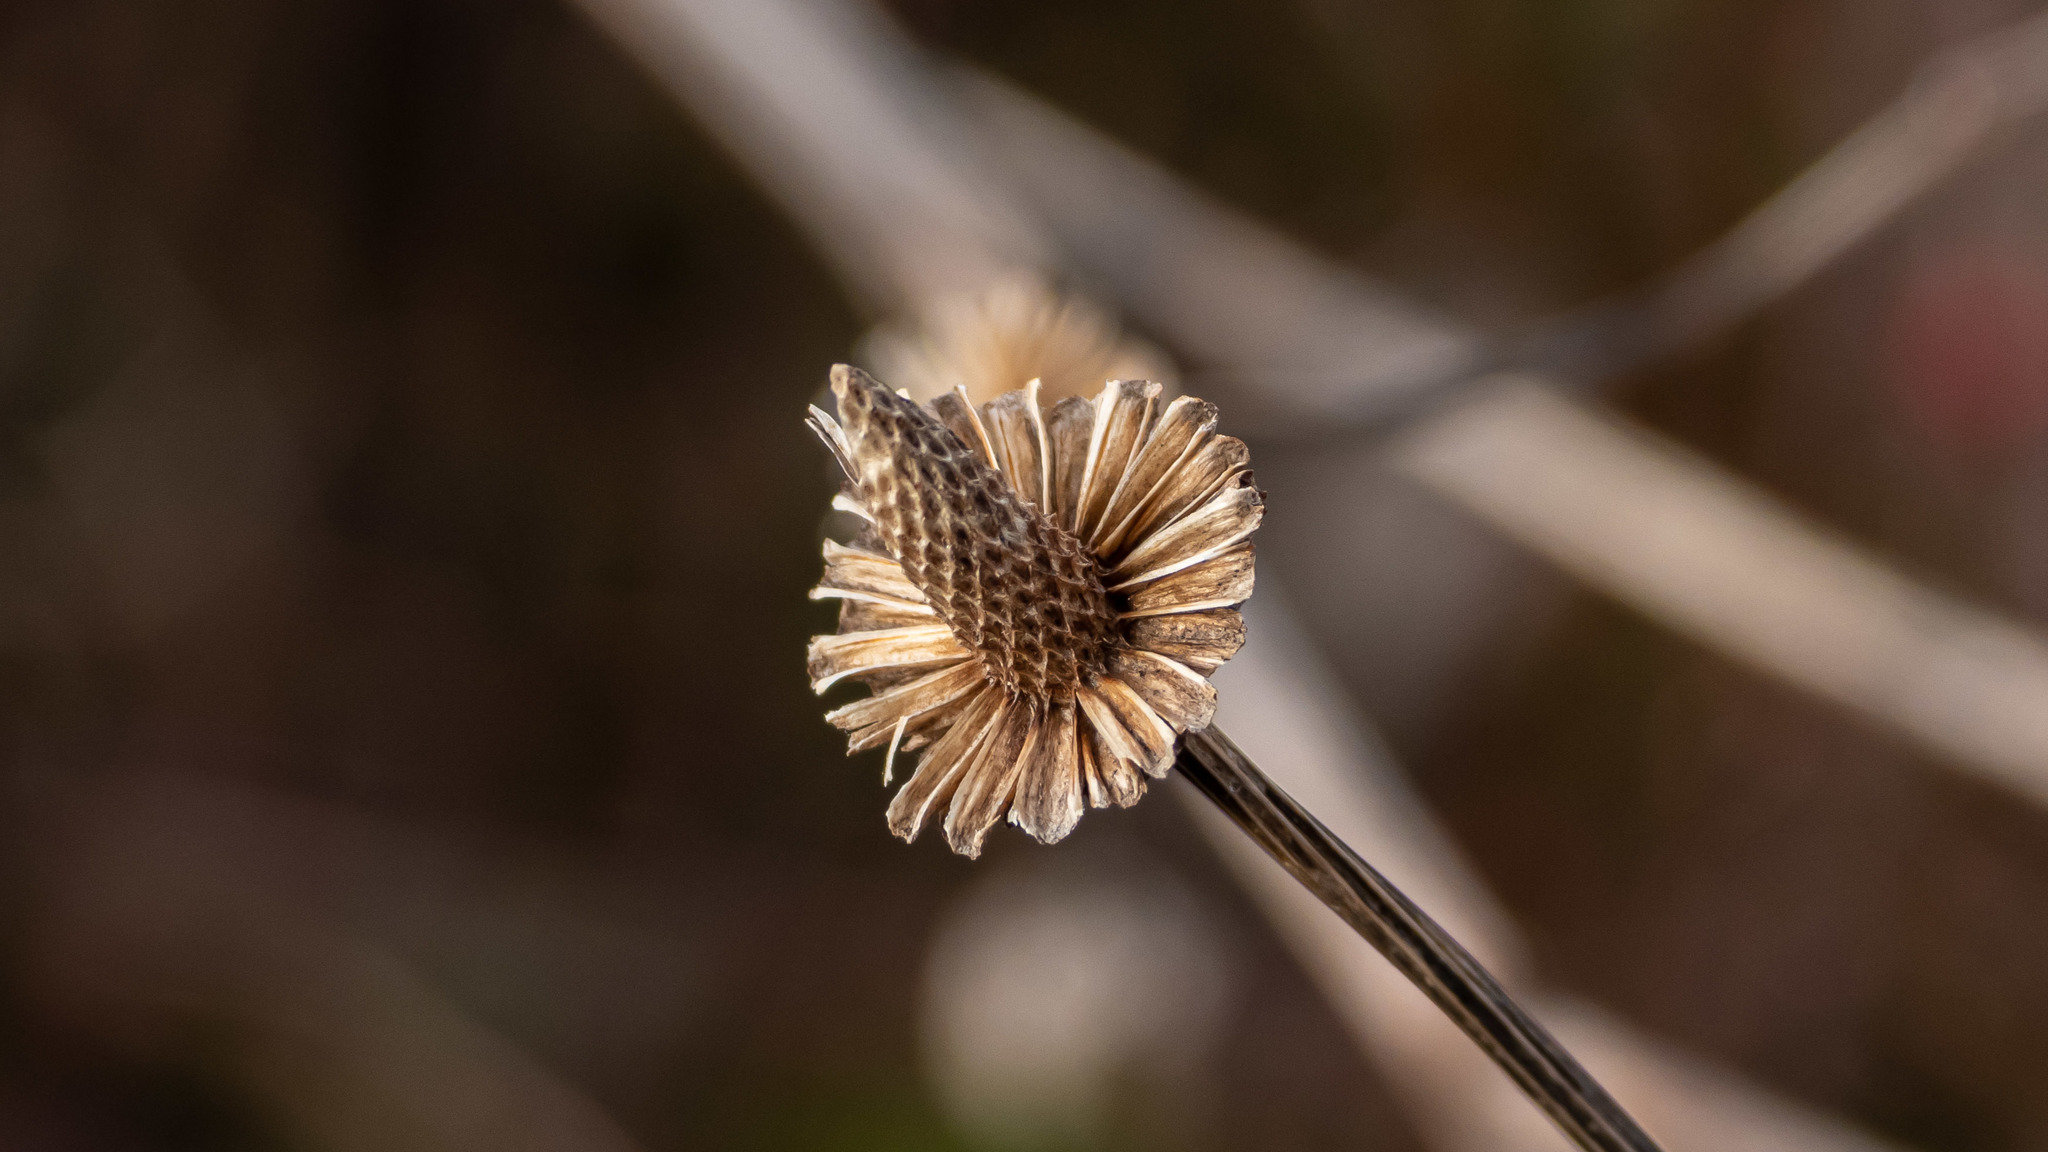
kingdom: Plantae
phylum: Tracheophyta
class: Magnoliopsida
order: Asterales
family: Asteraceae
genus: Echinacea
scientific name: Echinacea purpurea
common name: Broad-leaved purple coneflower
